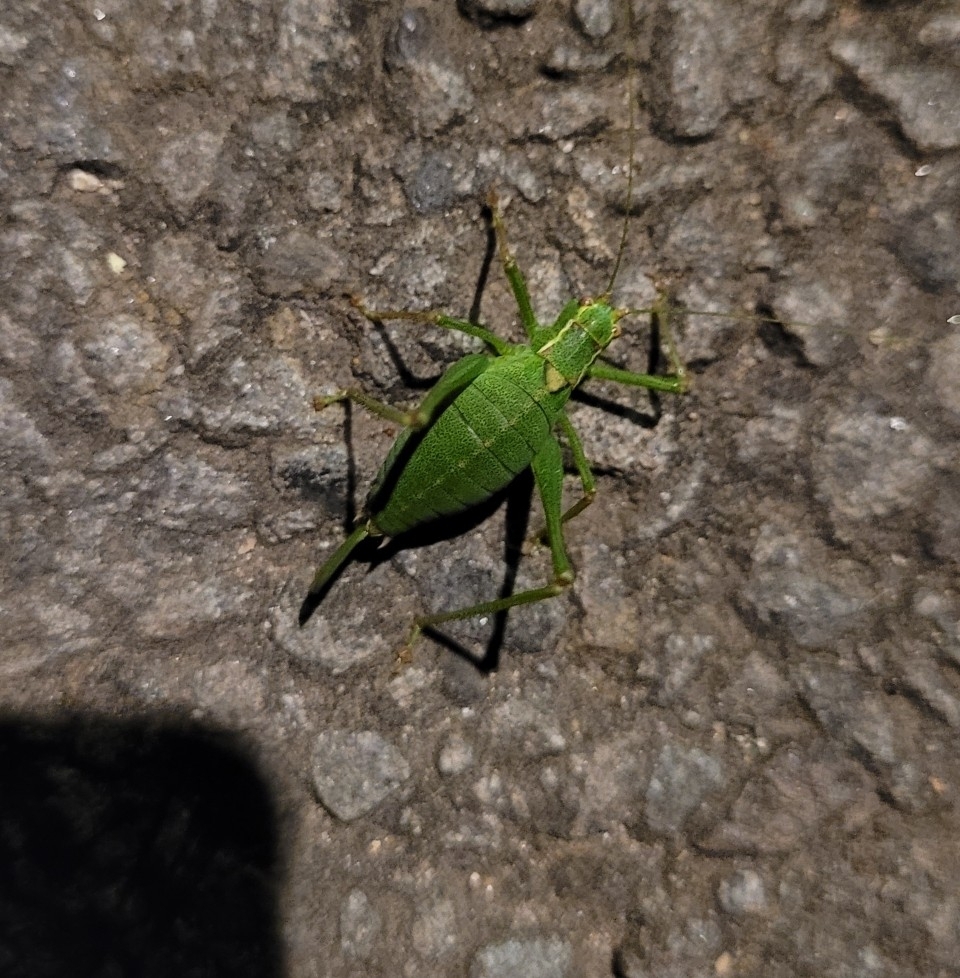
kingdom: Animalia
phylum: Arthropoda
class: Insecta
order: Orthoptera
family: Tettigoniidae
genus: Leptophyes
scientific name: Leptophyes punctatissima
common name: Speckled bush-cricket
